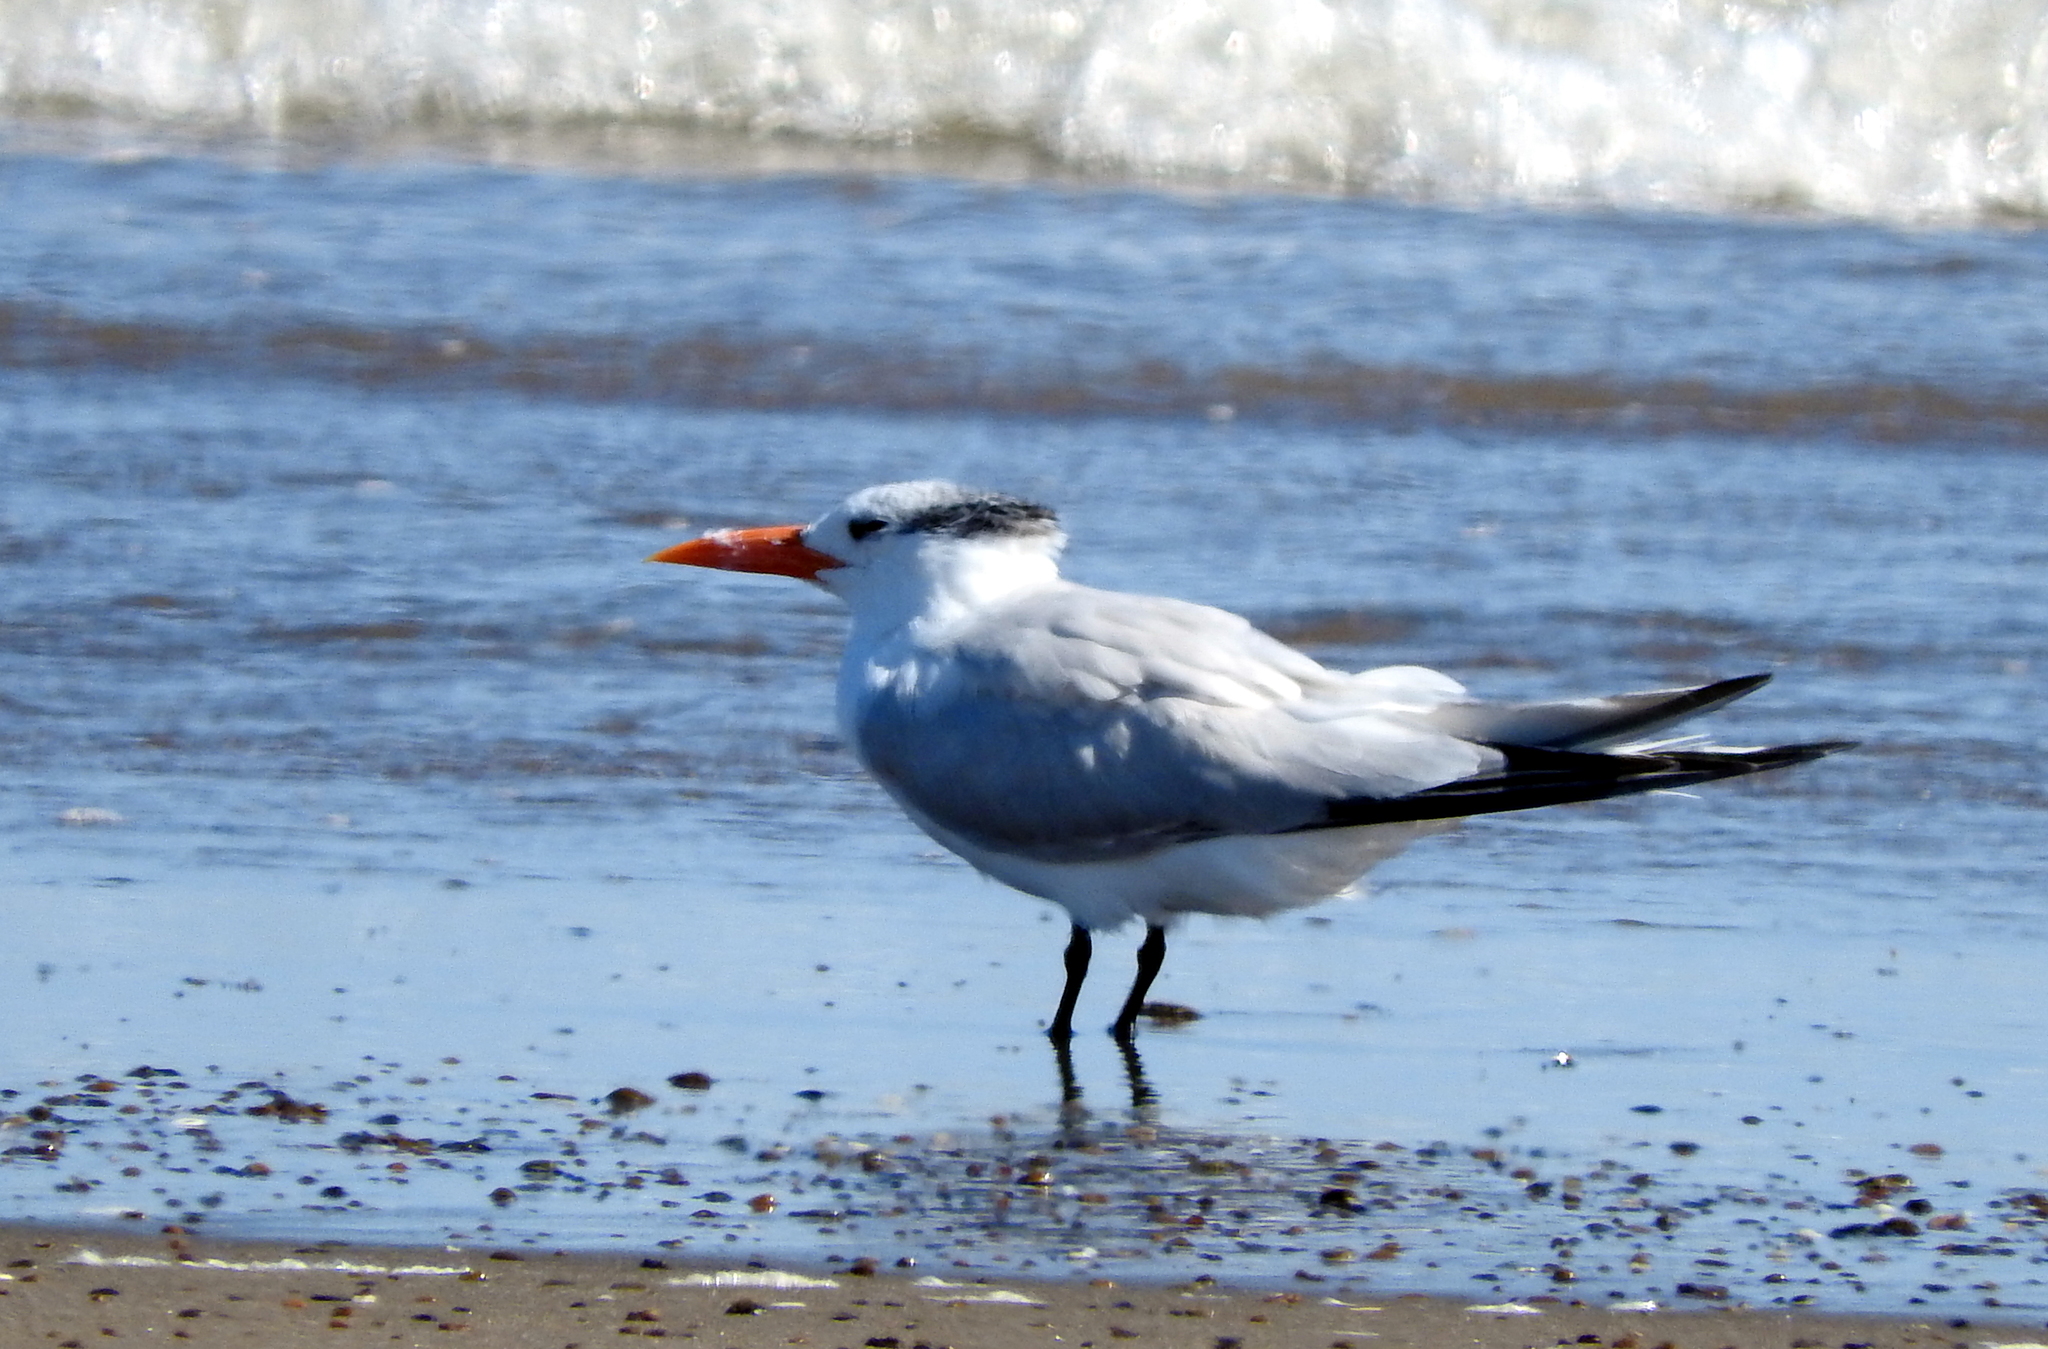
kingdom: Animalia
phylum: Chordata
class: Aves
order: Charadriiformes
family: Laridae
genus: Thalasseus
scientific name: Thalasseus maximus
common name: Royal tern
